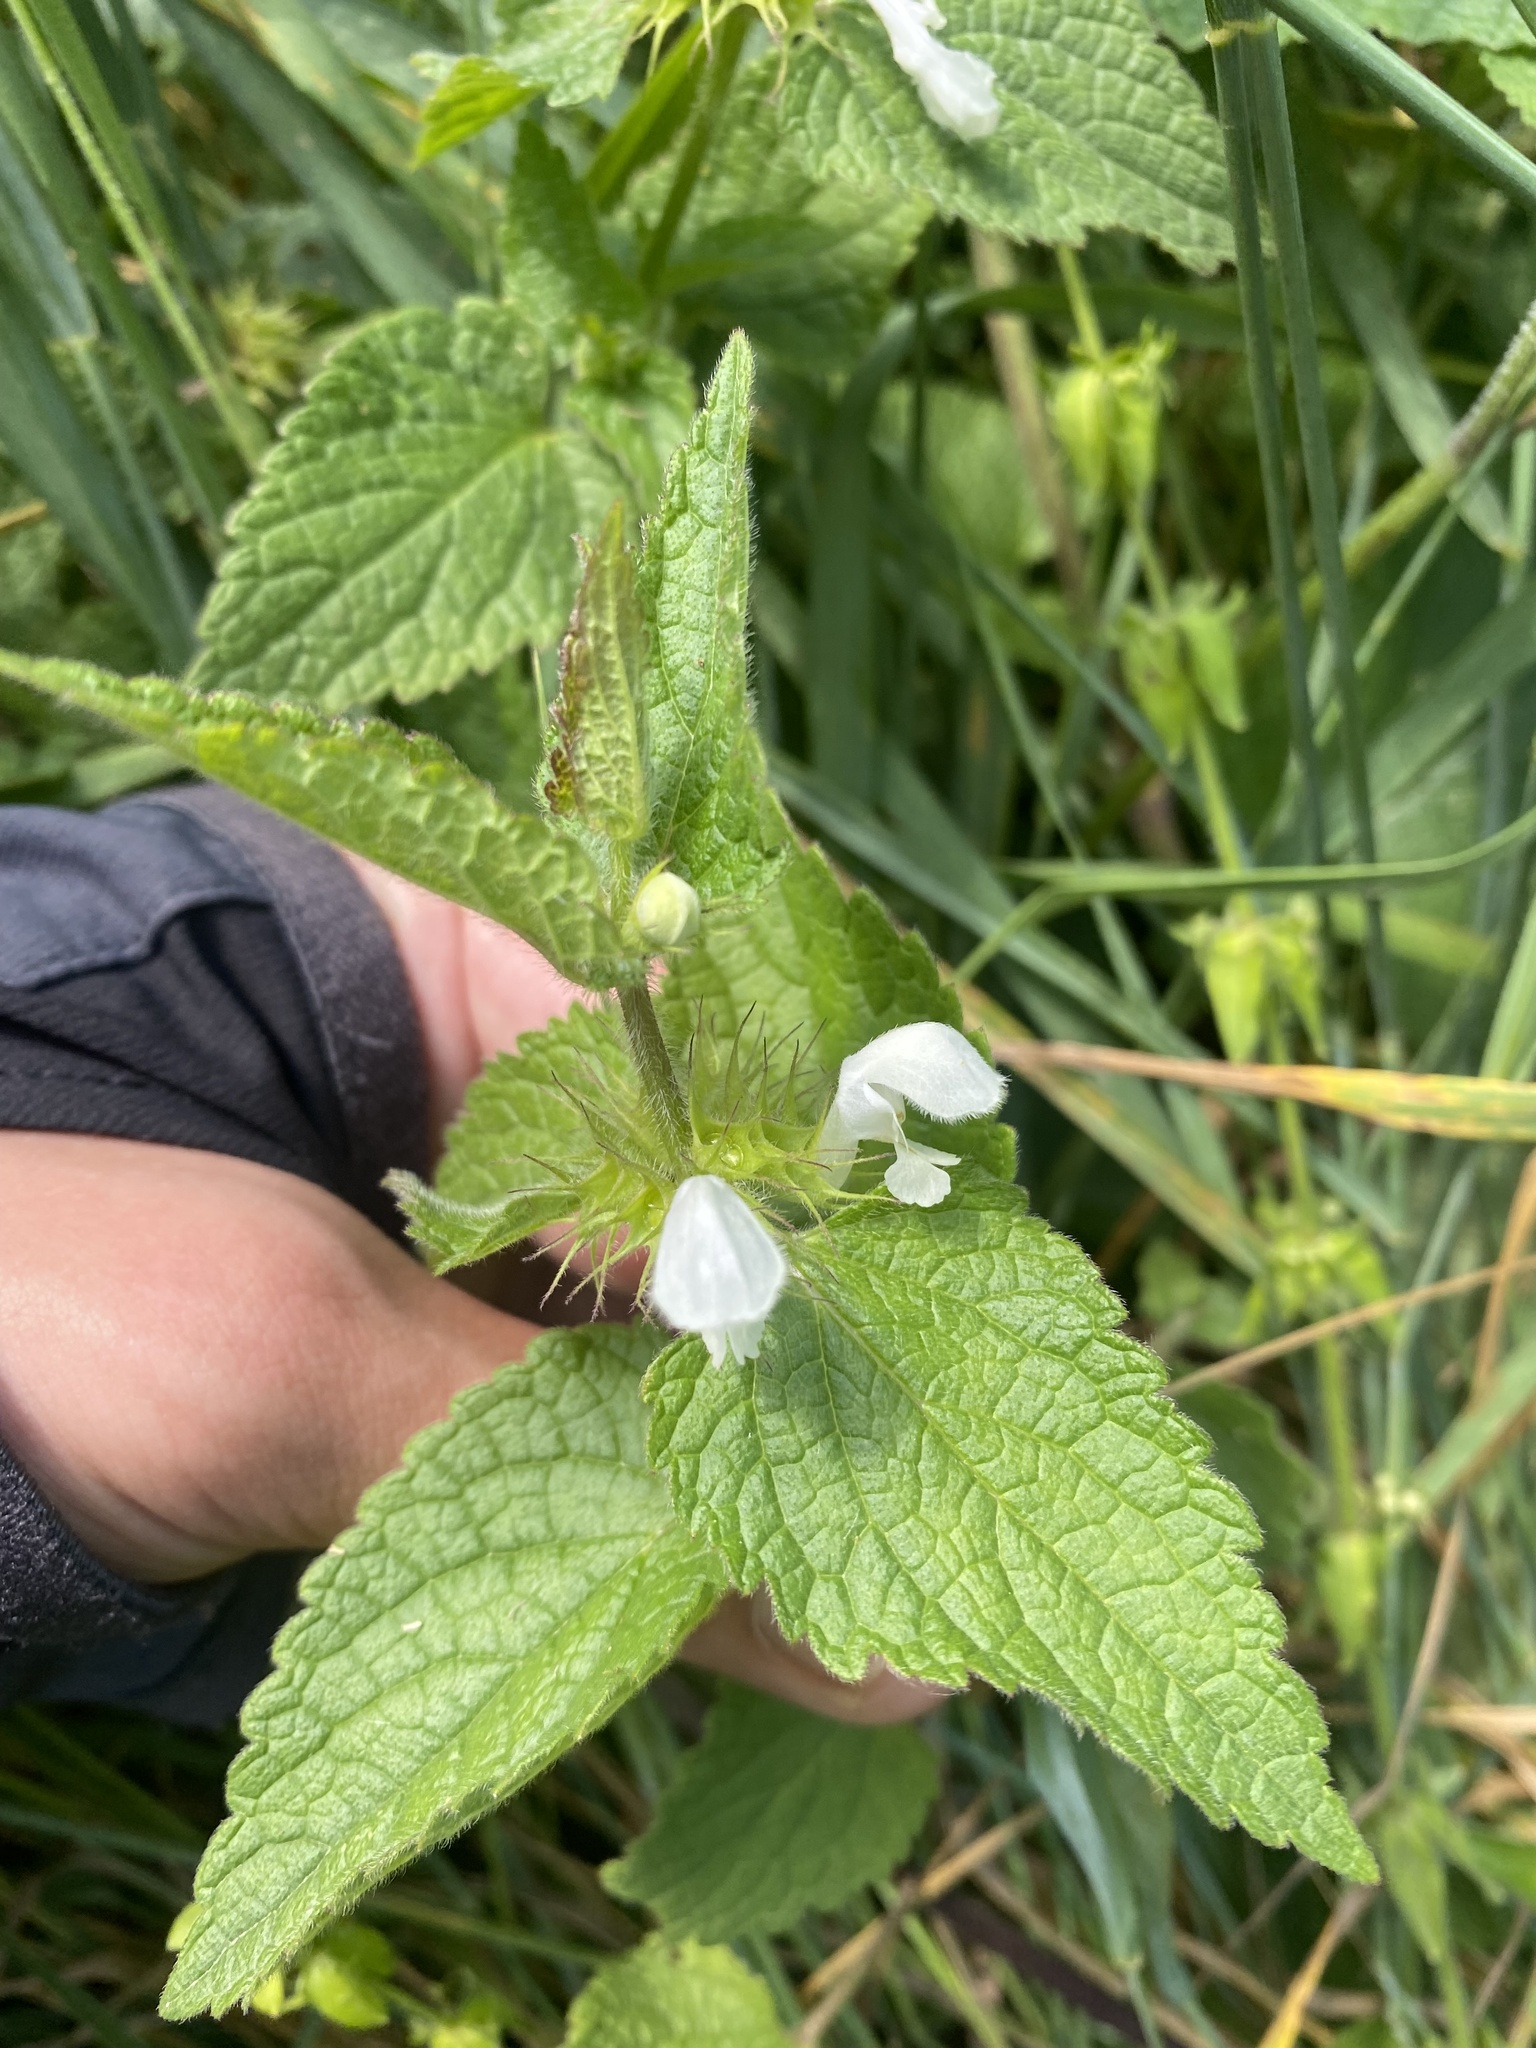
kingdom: Plantae
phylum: Tracheophyta
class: Magnoliopsida
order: Lamiales
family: Lamiaceae
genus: Lamium
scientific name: Lamium album
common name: White dead-nettle
